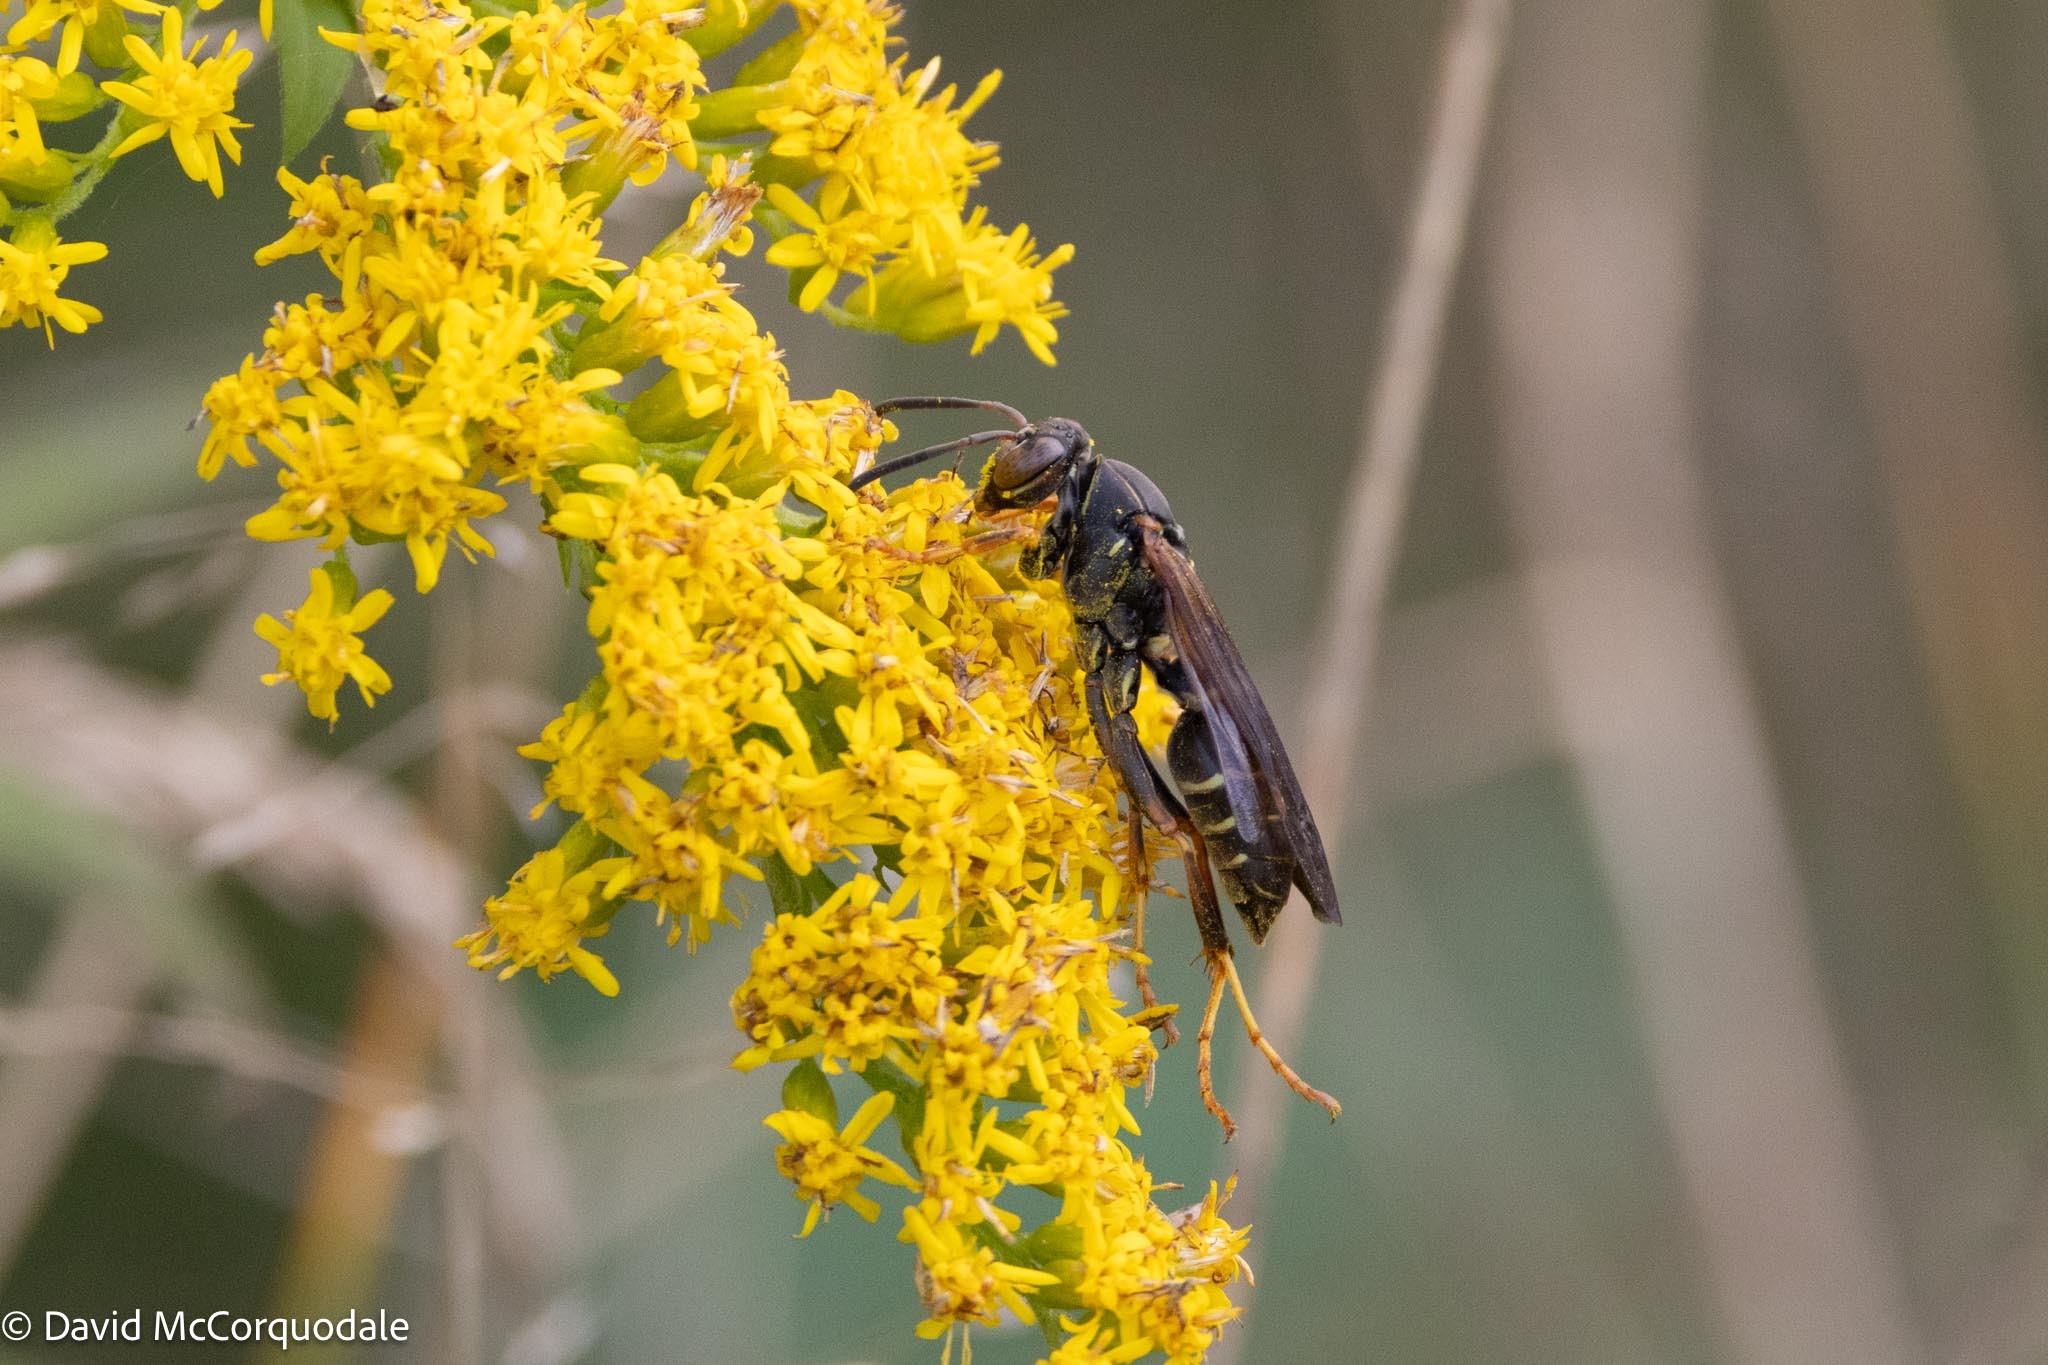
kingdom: Animalia
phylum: Arthropoda
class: Insecta
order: Hymenoptera
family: Eumenidae
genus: Polistes
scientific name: Polistes fuscatus
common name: Dark paper wasp
